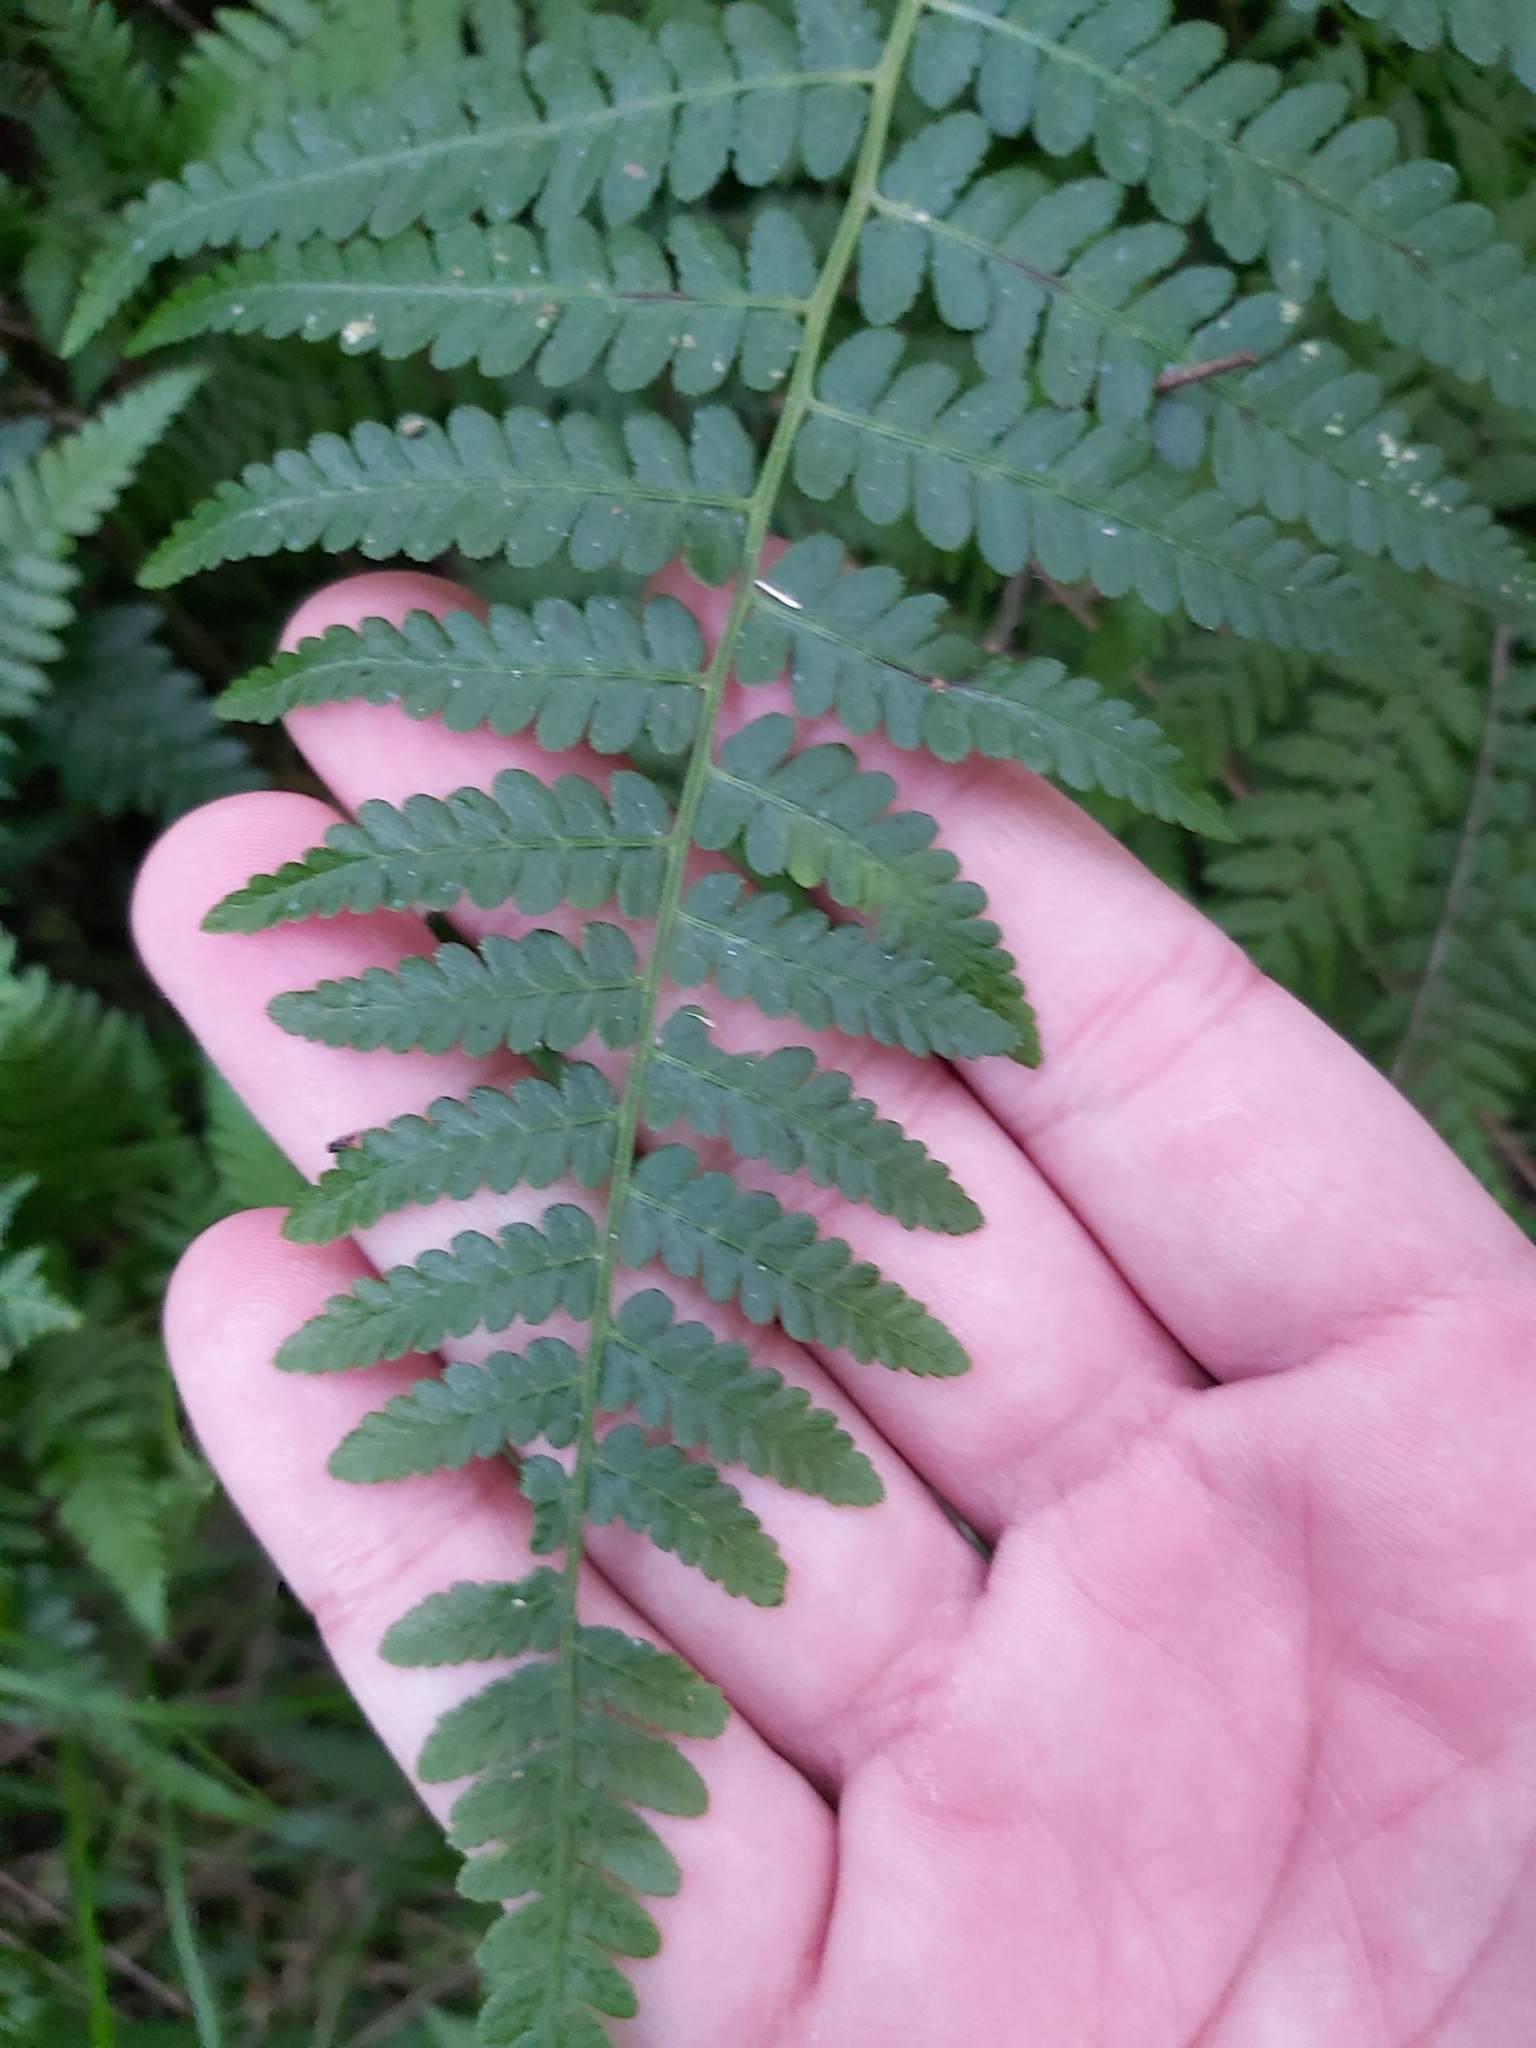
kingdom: Plantae
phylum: Tracheophyta
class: Polypodiopsida
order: Polypodiales
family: Dennstaedtiaceae
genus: Hypolepis
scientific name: Hypolepis muelleri
